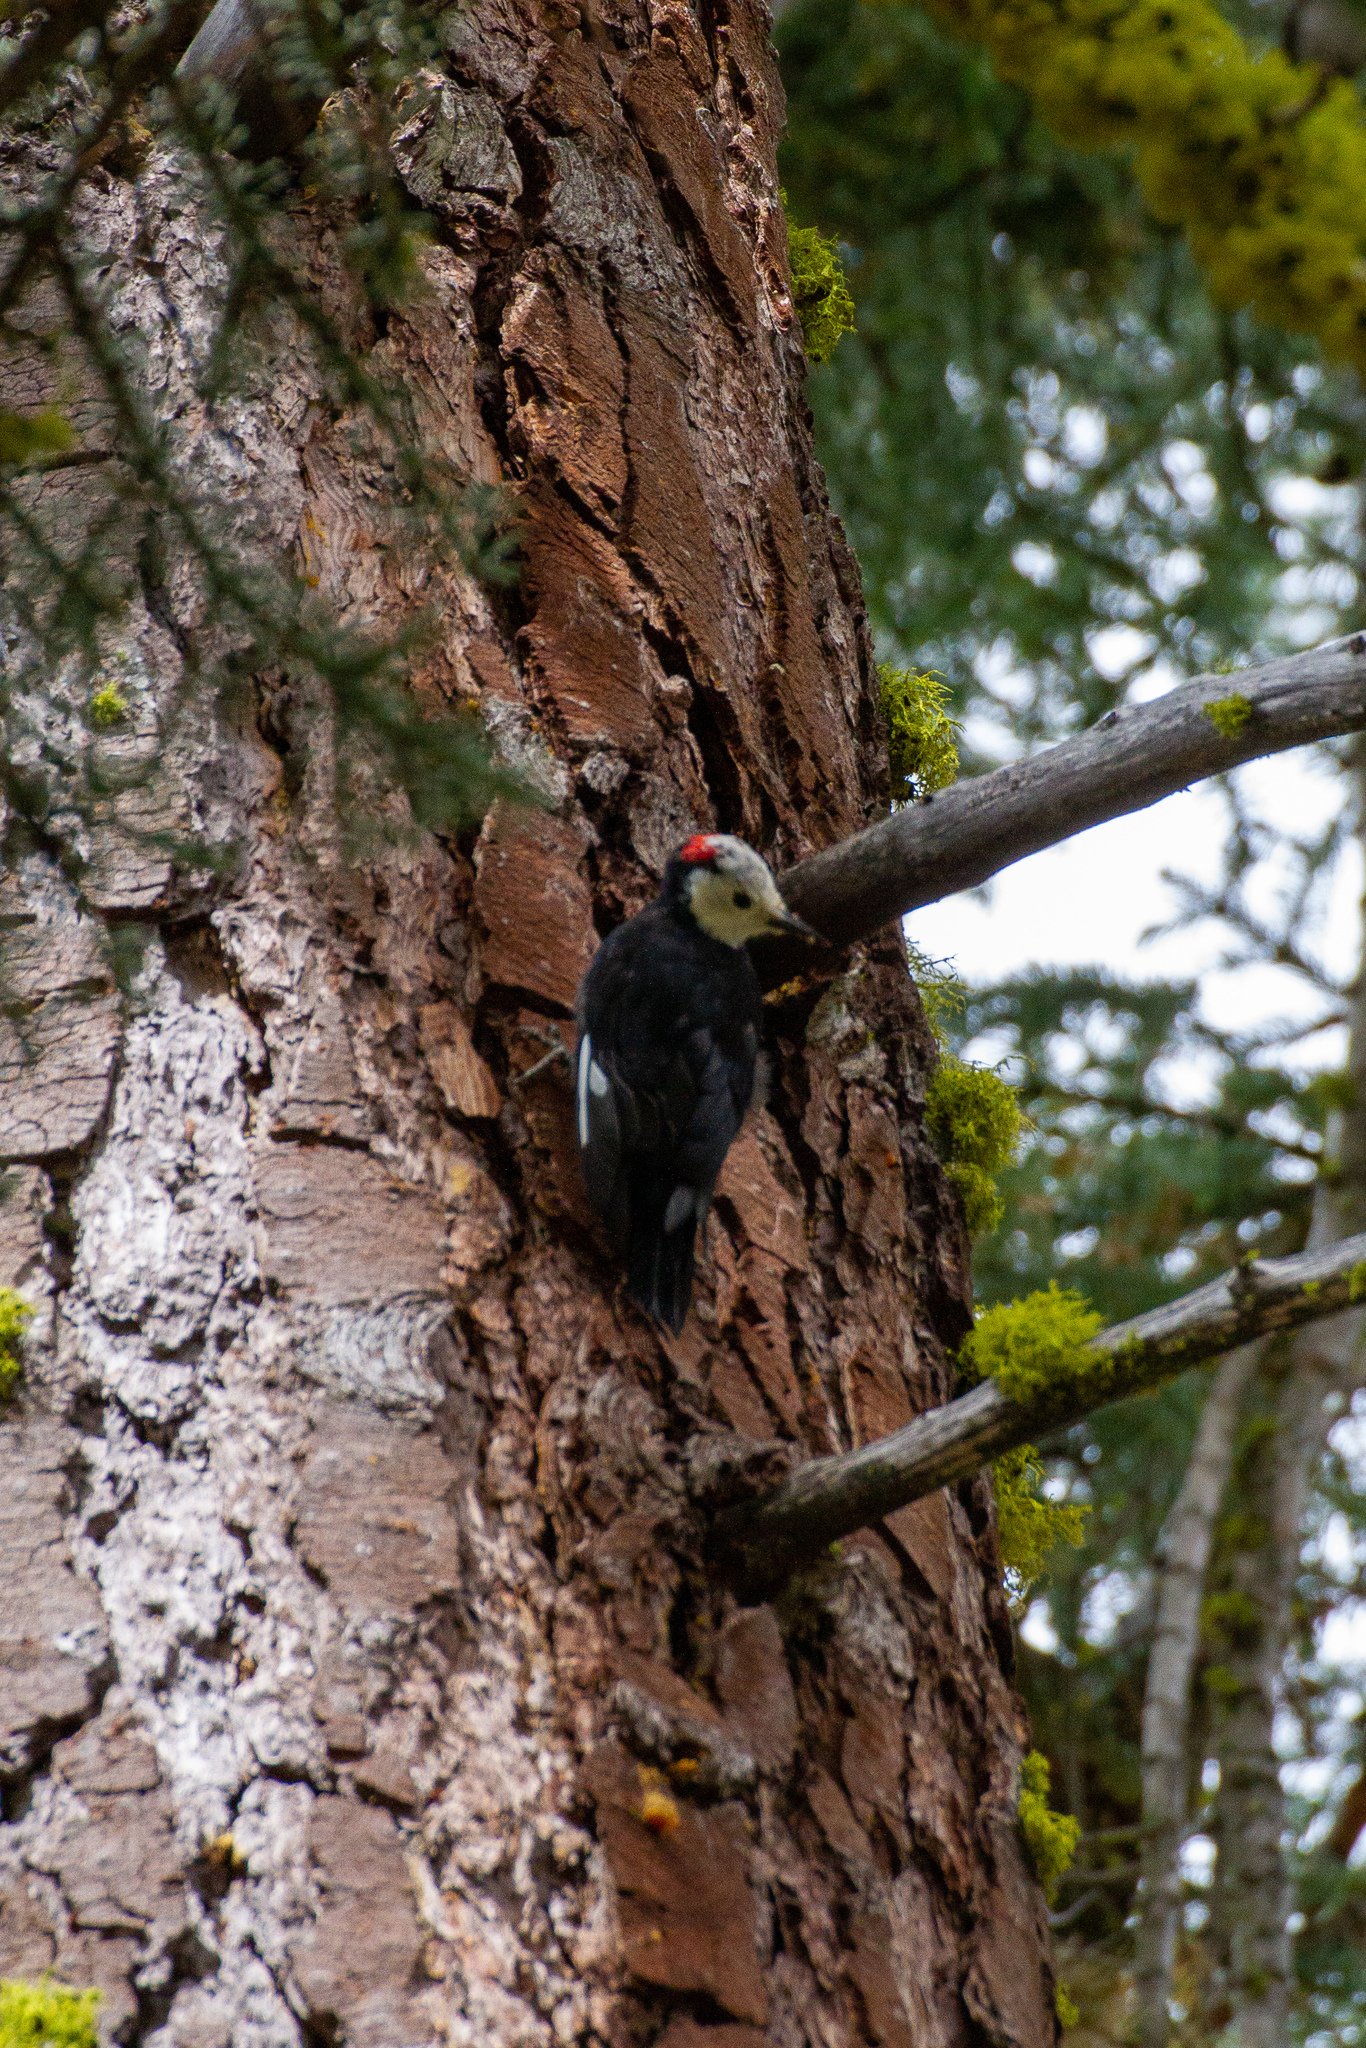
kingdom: Animalia
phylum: Chordata
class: Aves
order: Piciformes
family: Picidae
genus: Leuconotopicus
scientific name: Leuconotopicus albolarvatus
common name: White-headed woodpecker
